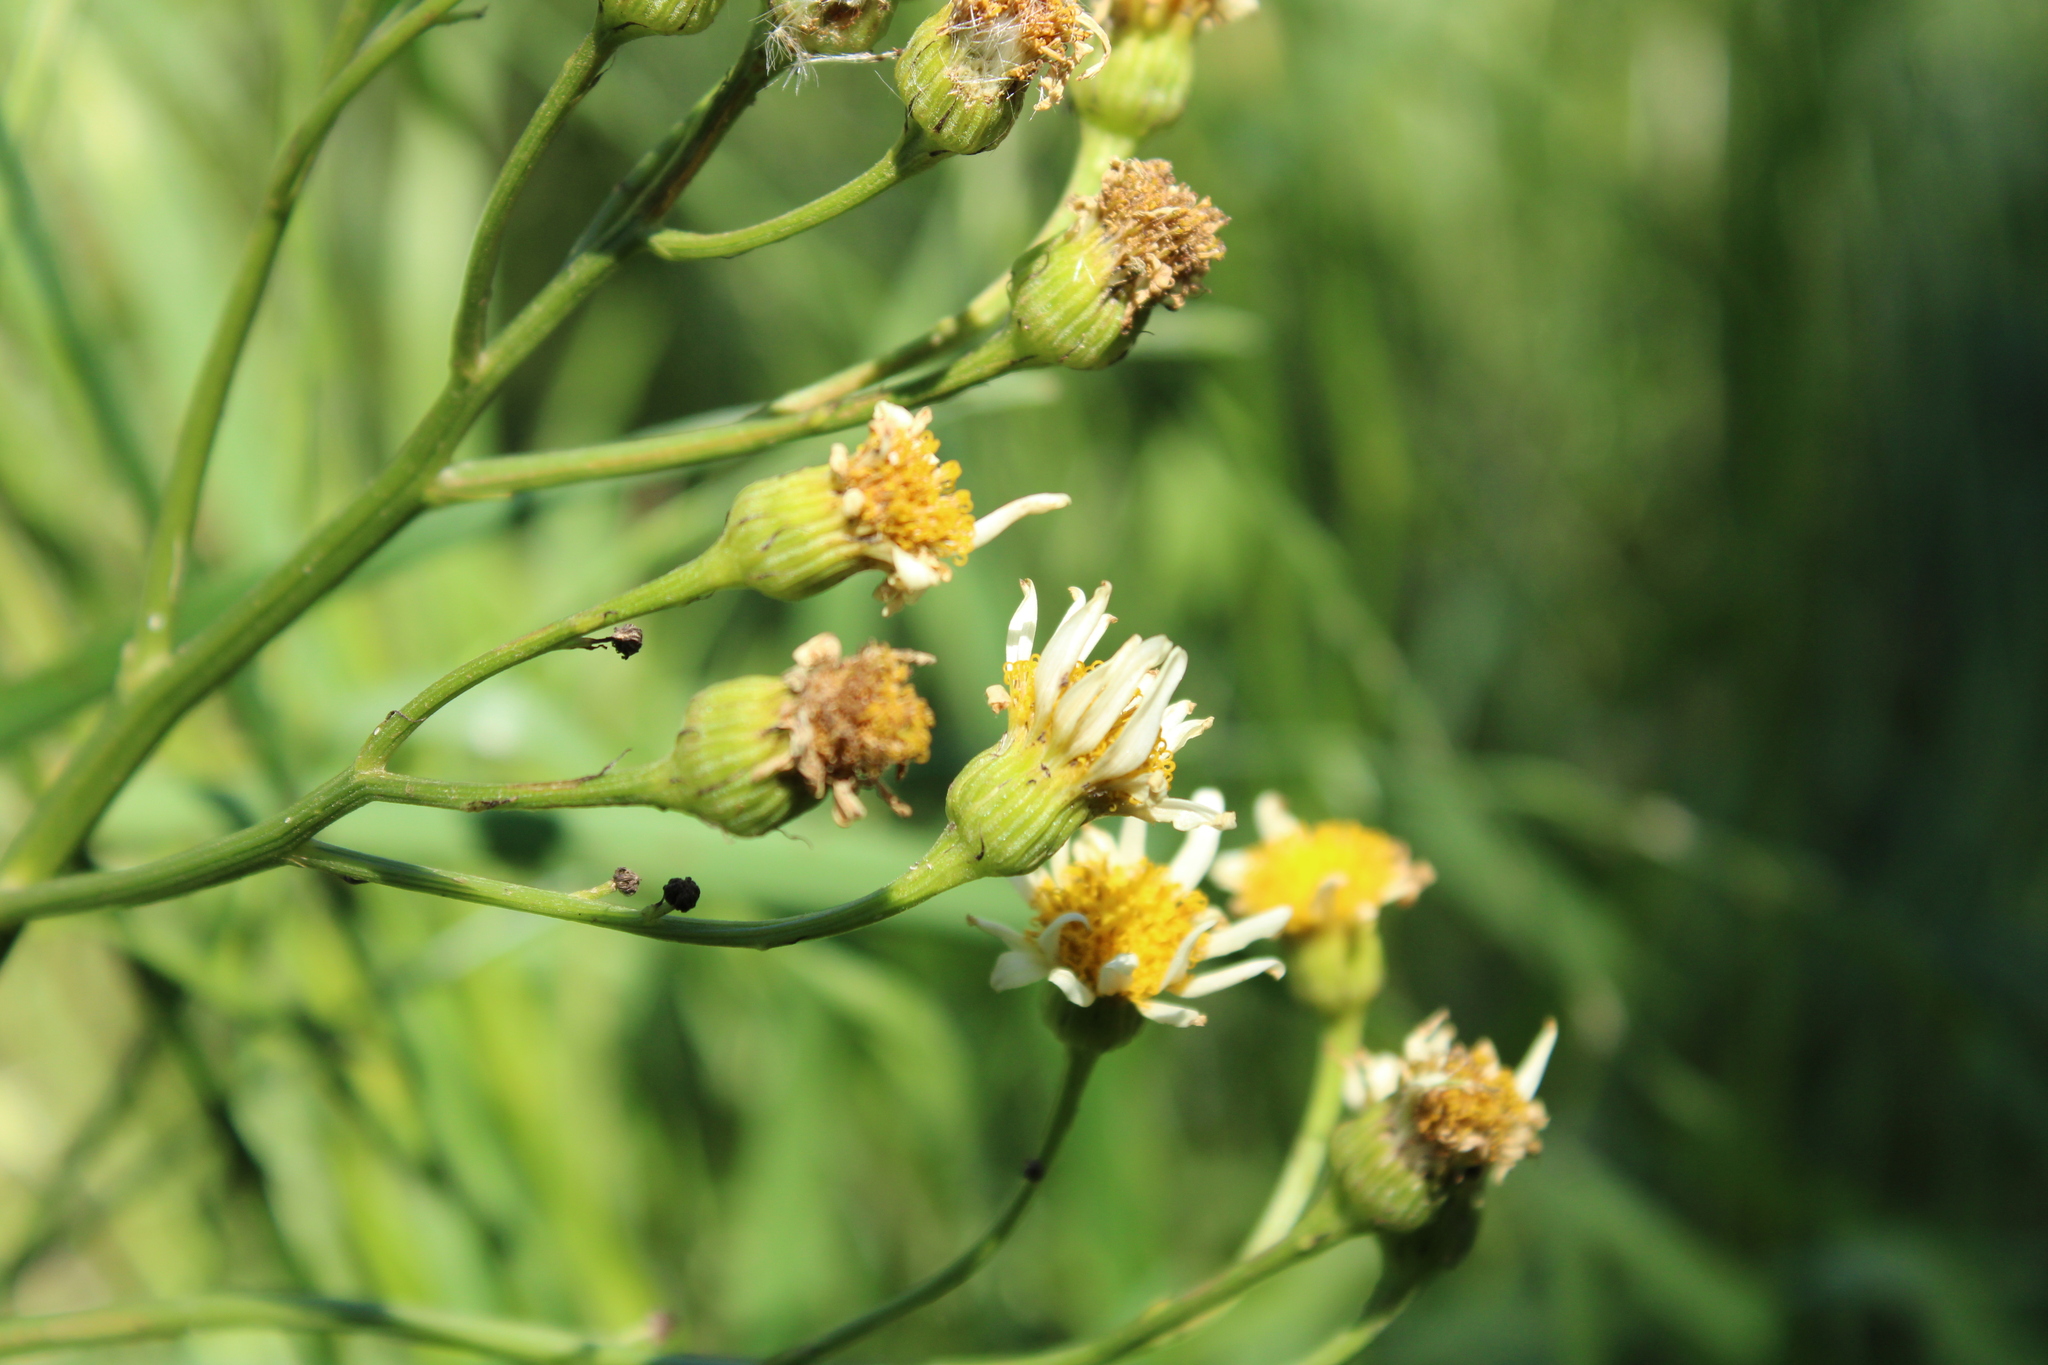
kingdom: Plantae
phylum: Tracheophyta
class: Magnoliopsida
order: Asterales
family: Asteraceae
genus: Senecio
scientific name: Senecio bonariensis
